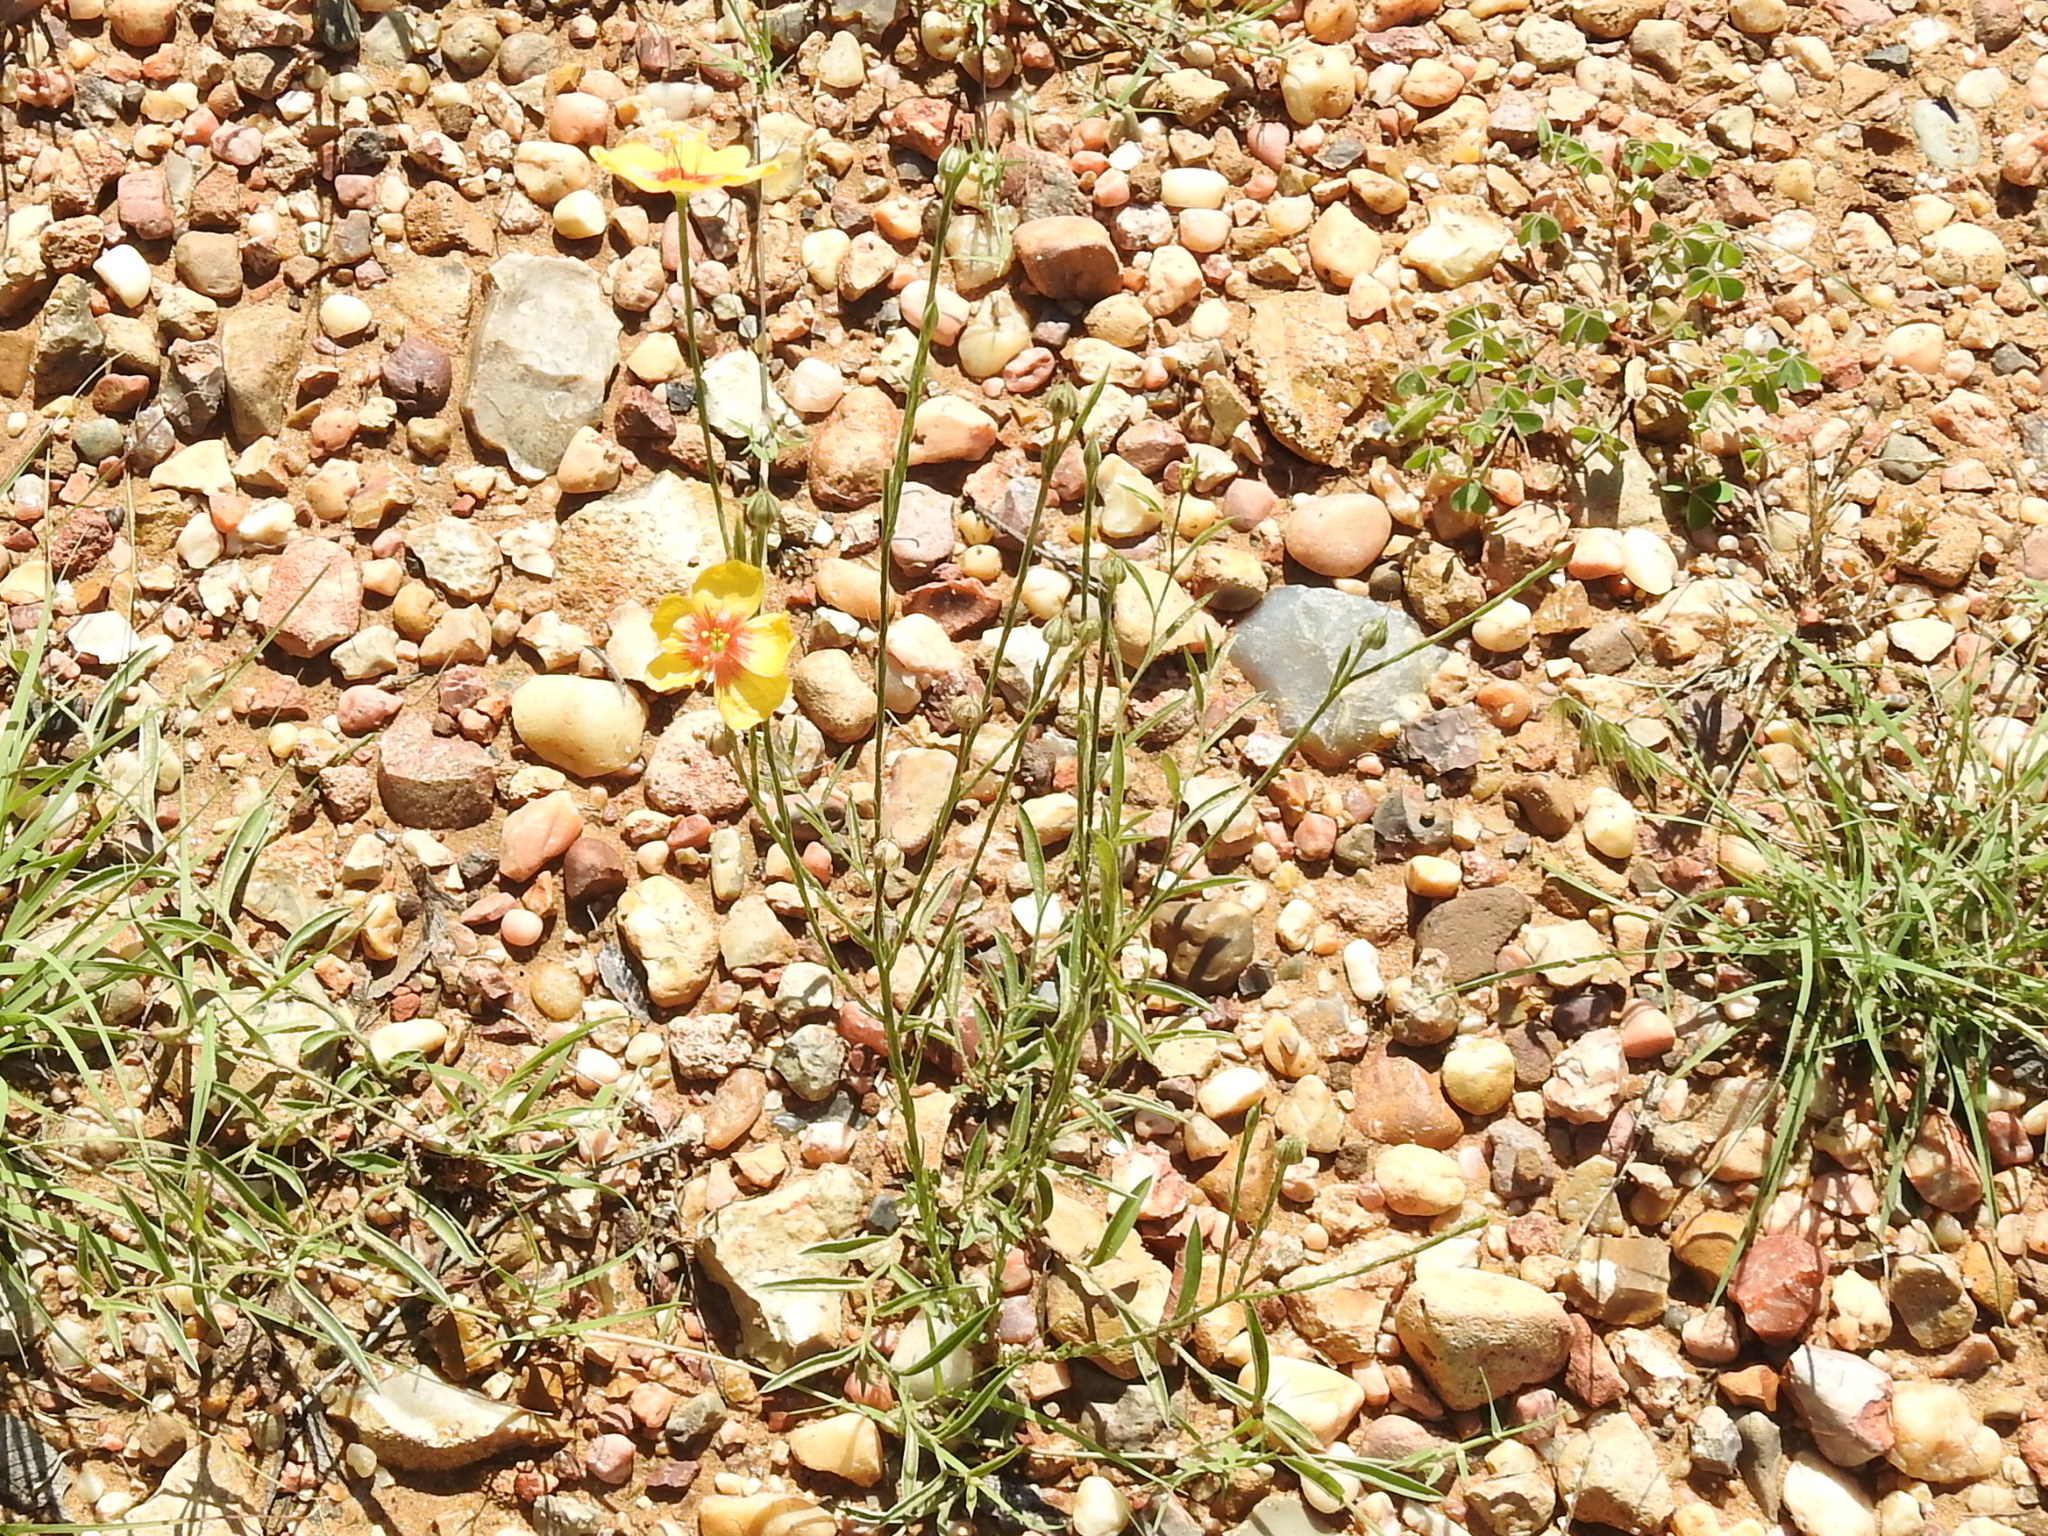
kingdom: Plantae
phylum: Tracheophyta
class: Magnoliopsida
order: Malpighiales
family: Linaceae
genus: Linum
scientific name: Linum hudsonioides
